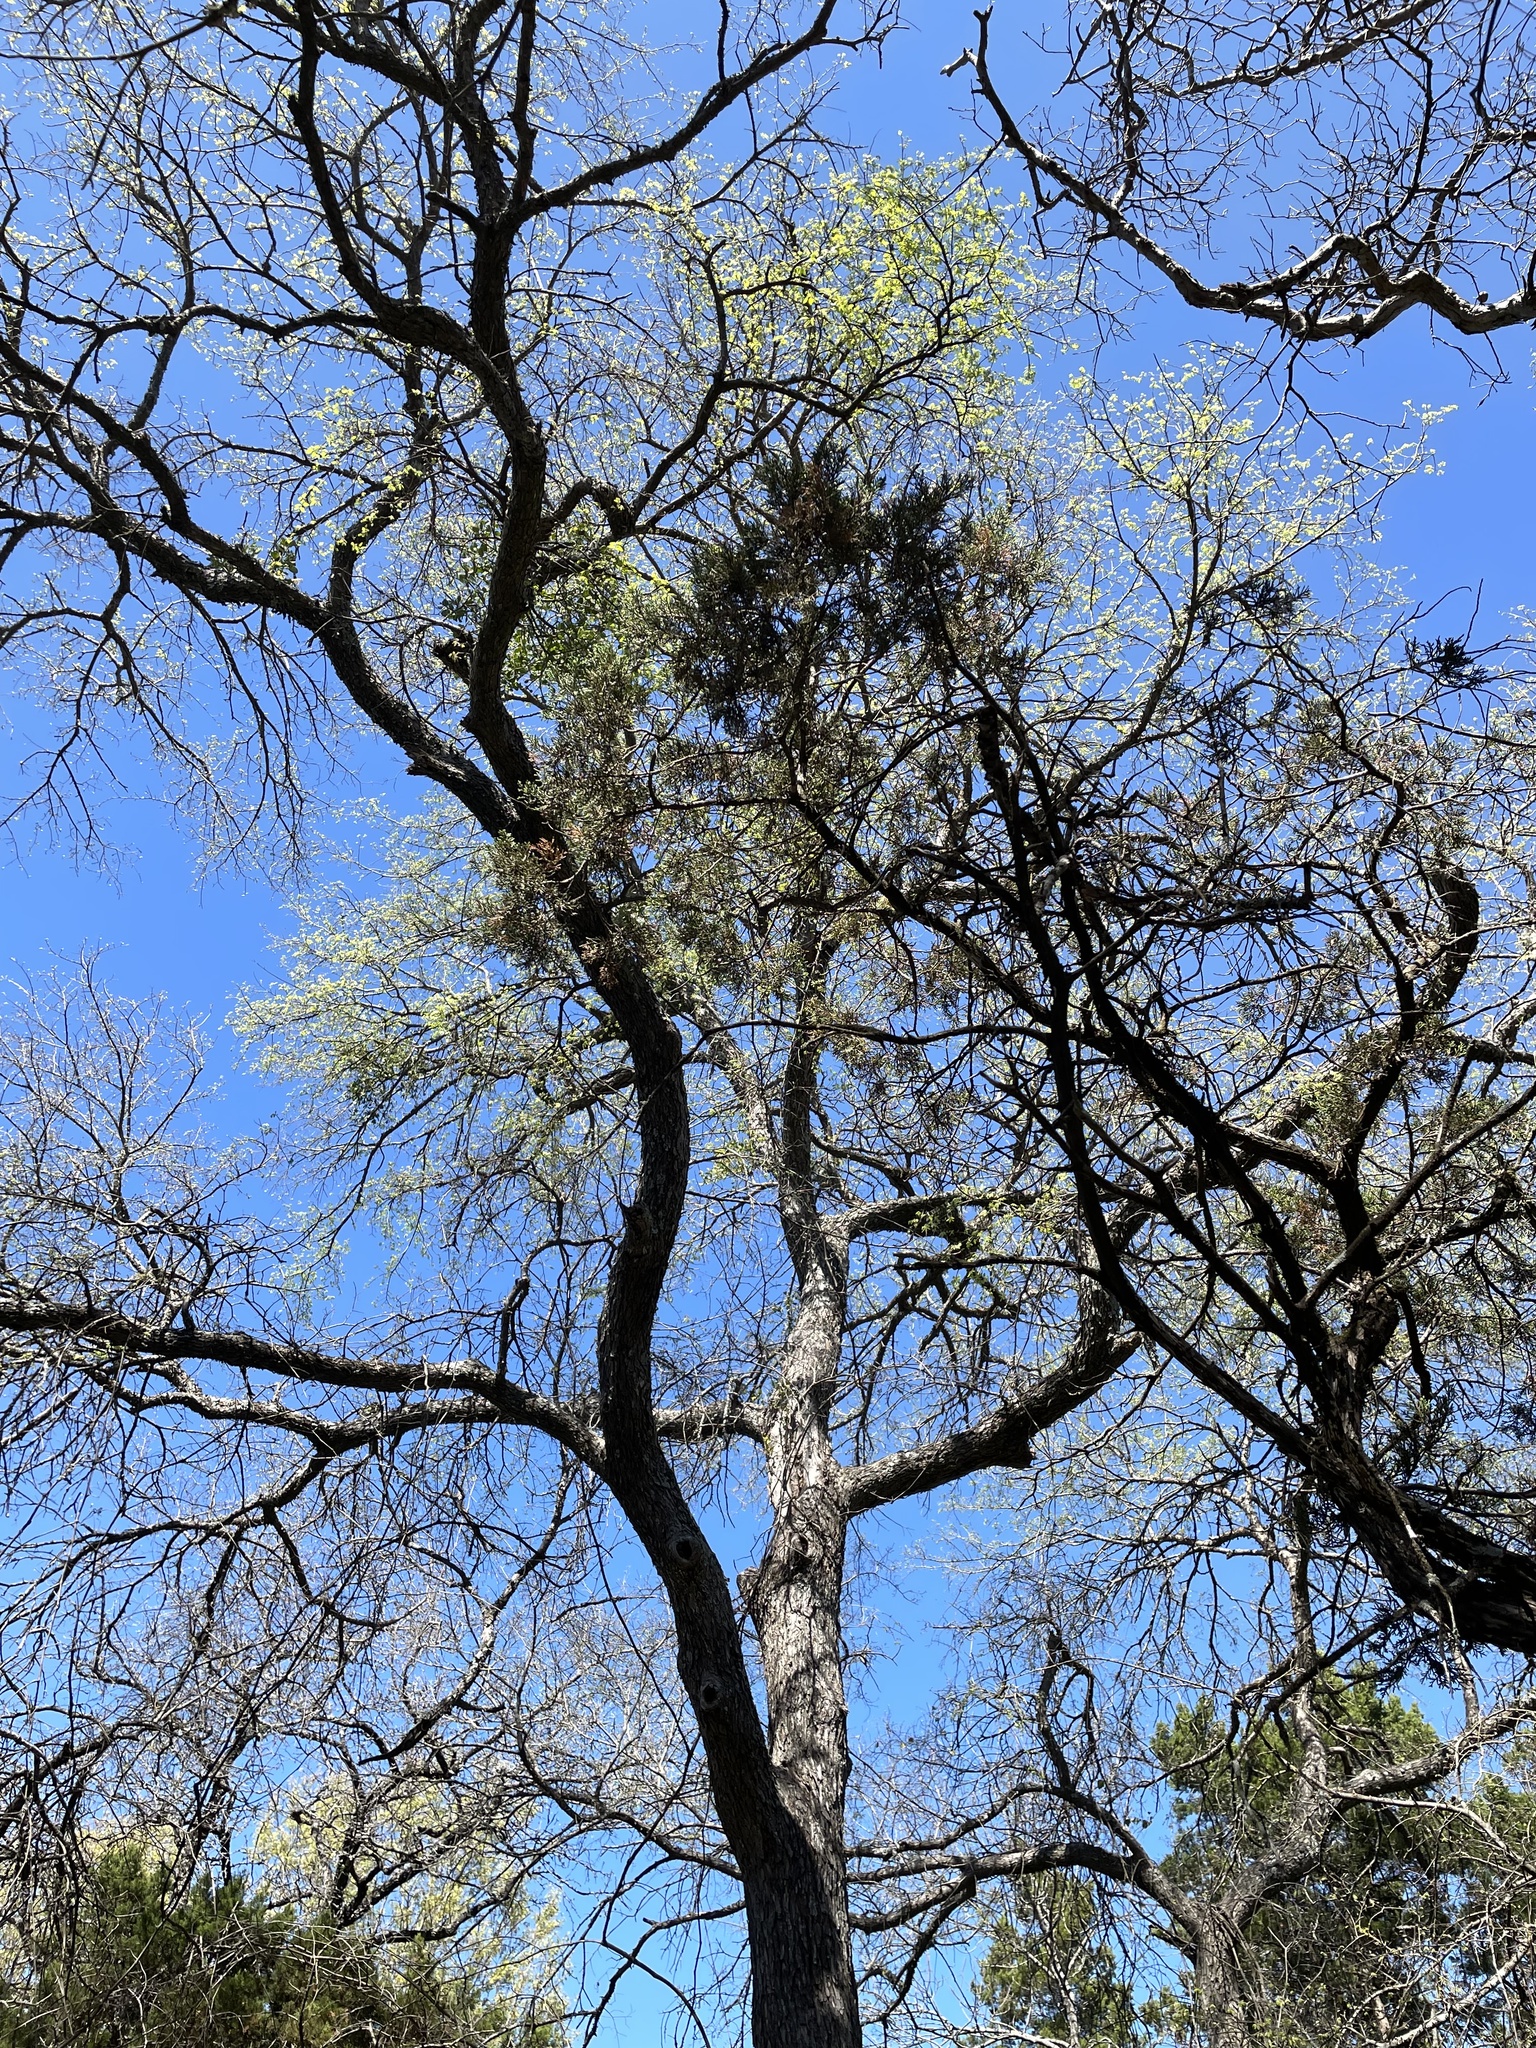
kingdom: Plantae
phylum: Tracheophyta
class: Magnoliopsida
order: Rosales
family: Ulmaceae
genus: Ulmus
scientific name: Ulmus crassifolia
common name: Basket elm
